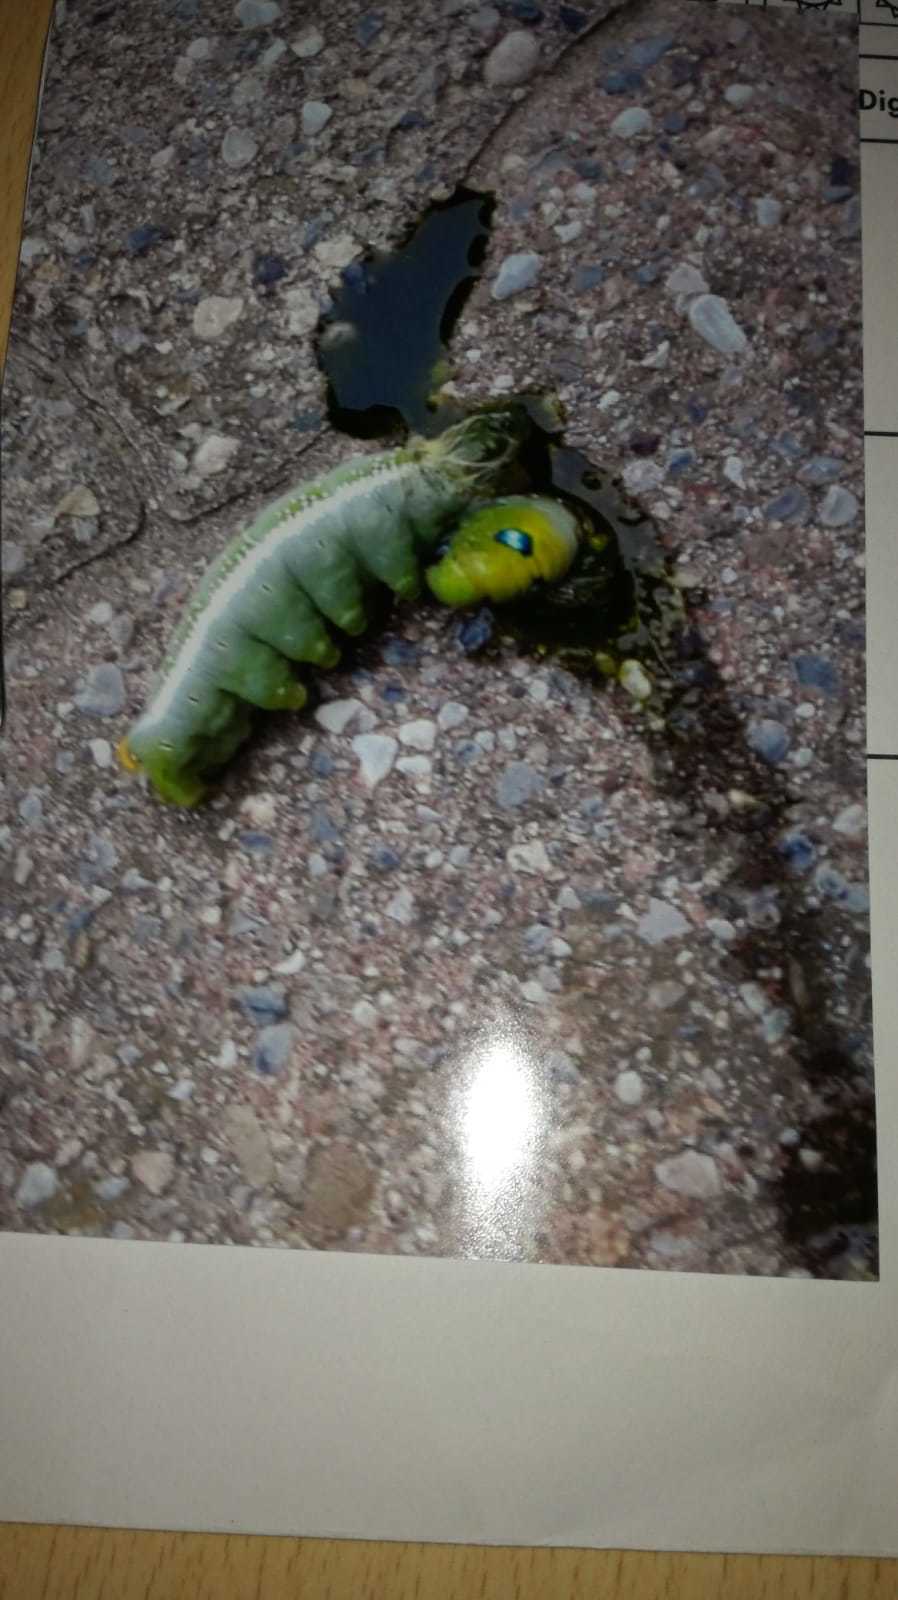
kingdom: Animalia
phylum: Arthropoda
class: Insecta
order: Lepidoptera
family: Sphingidae
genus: Daphnis
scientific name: Daphnis nerii
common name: Oleander hawk-moth
